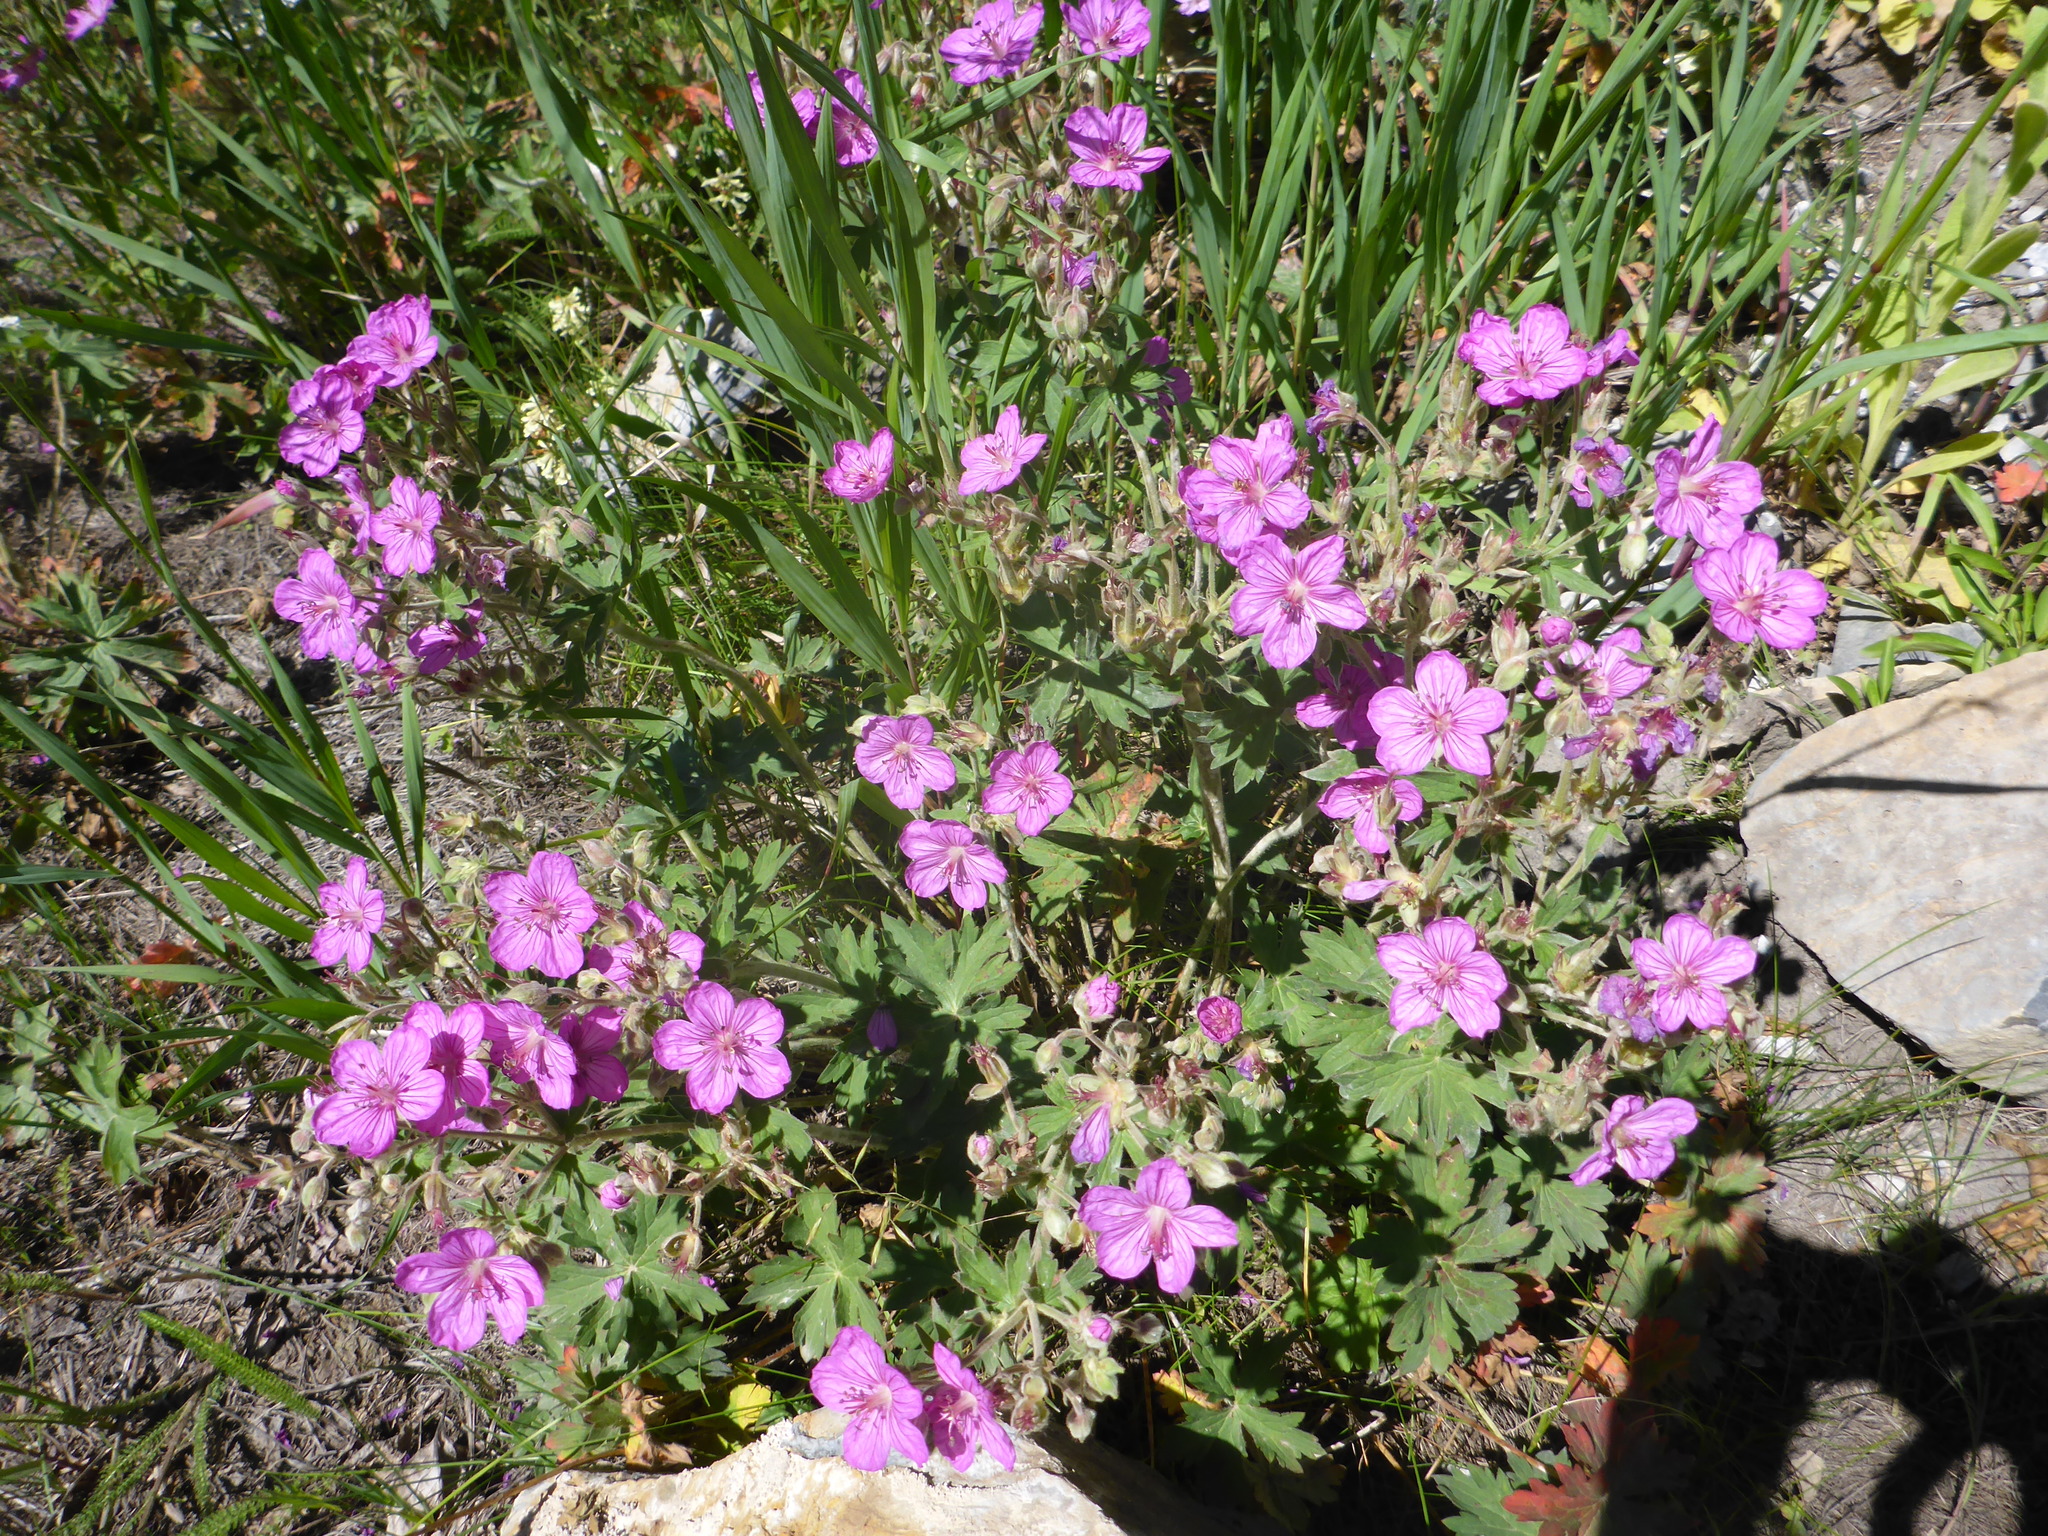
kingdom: Plantae
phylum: Tracheophyta
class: Magnoliopsida
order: Geraniales
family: Geraniaceae
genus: Geranium
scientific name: Geranium viscosissimum
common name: Purple geranium
